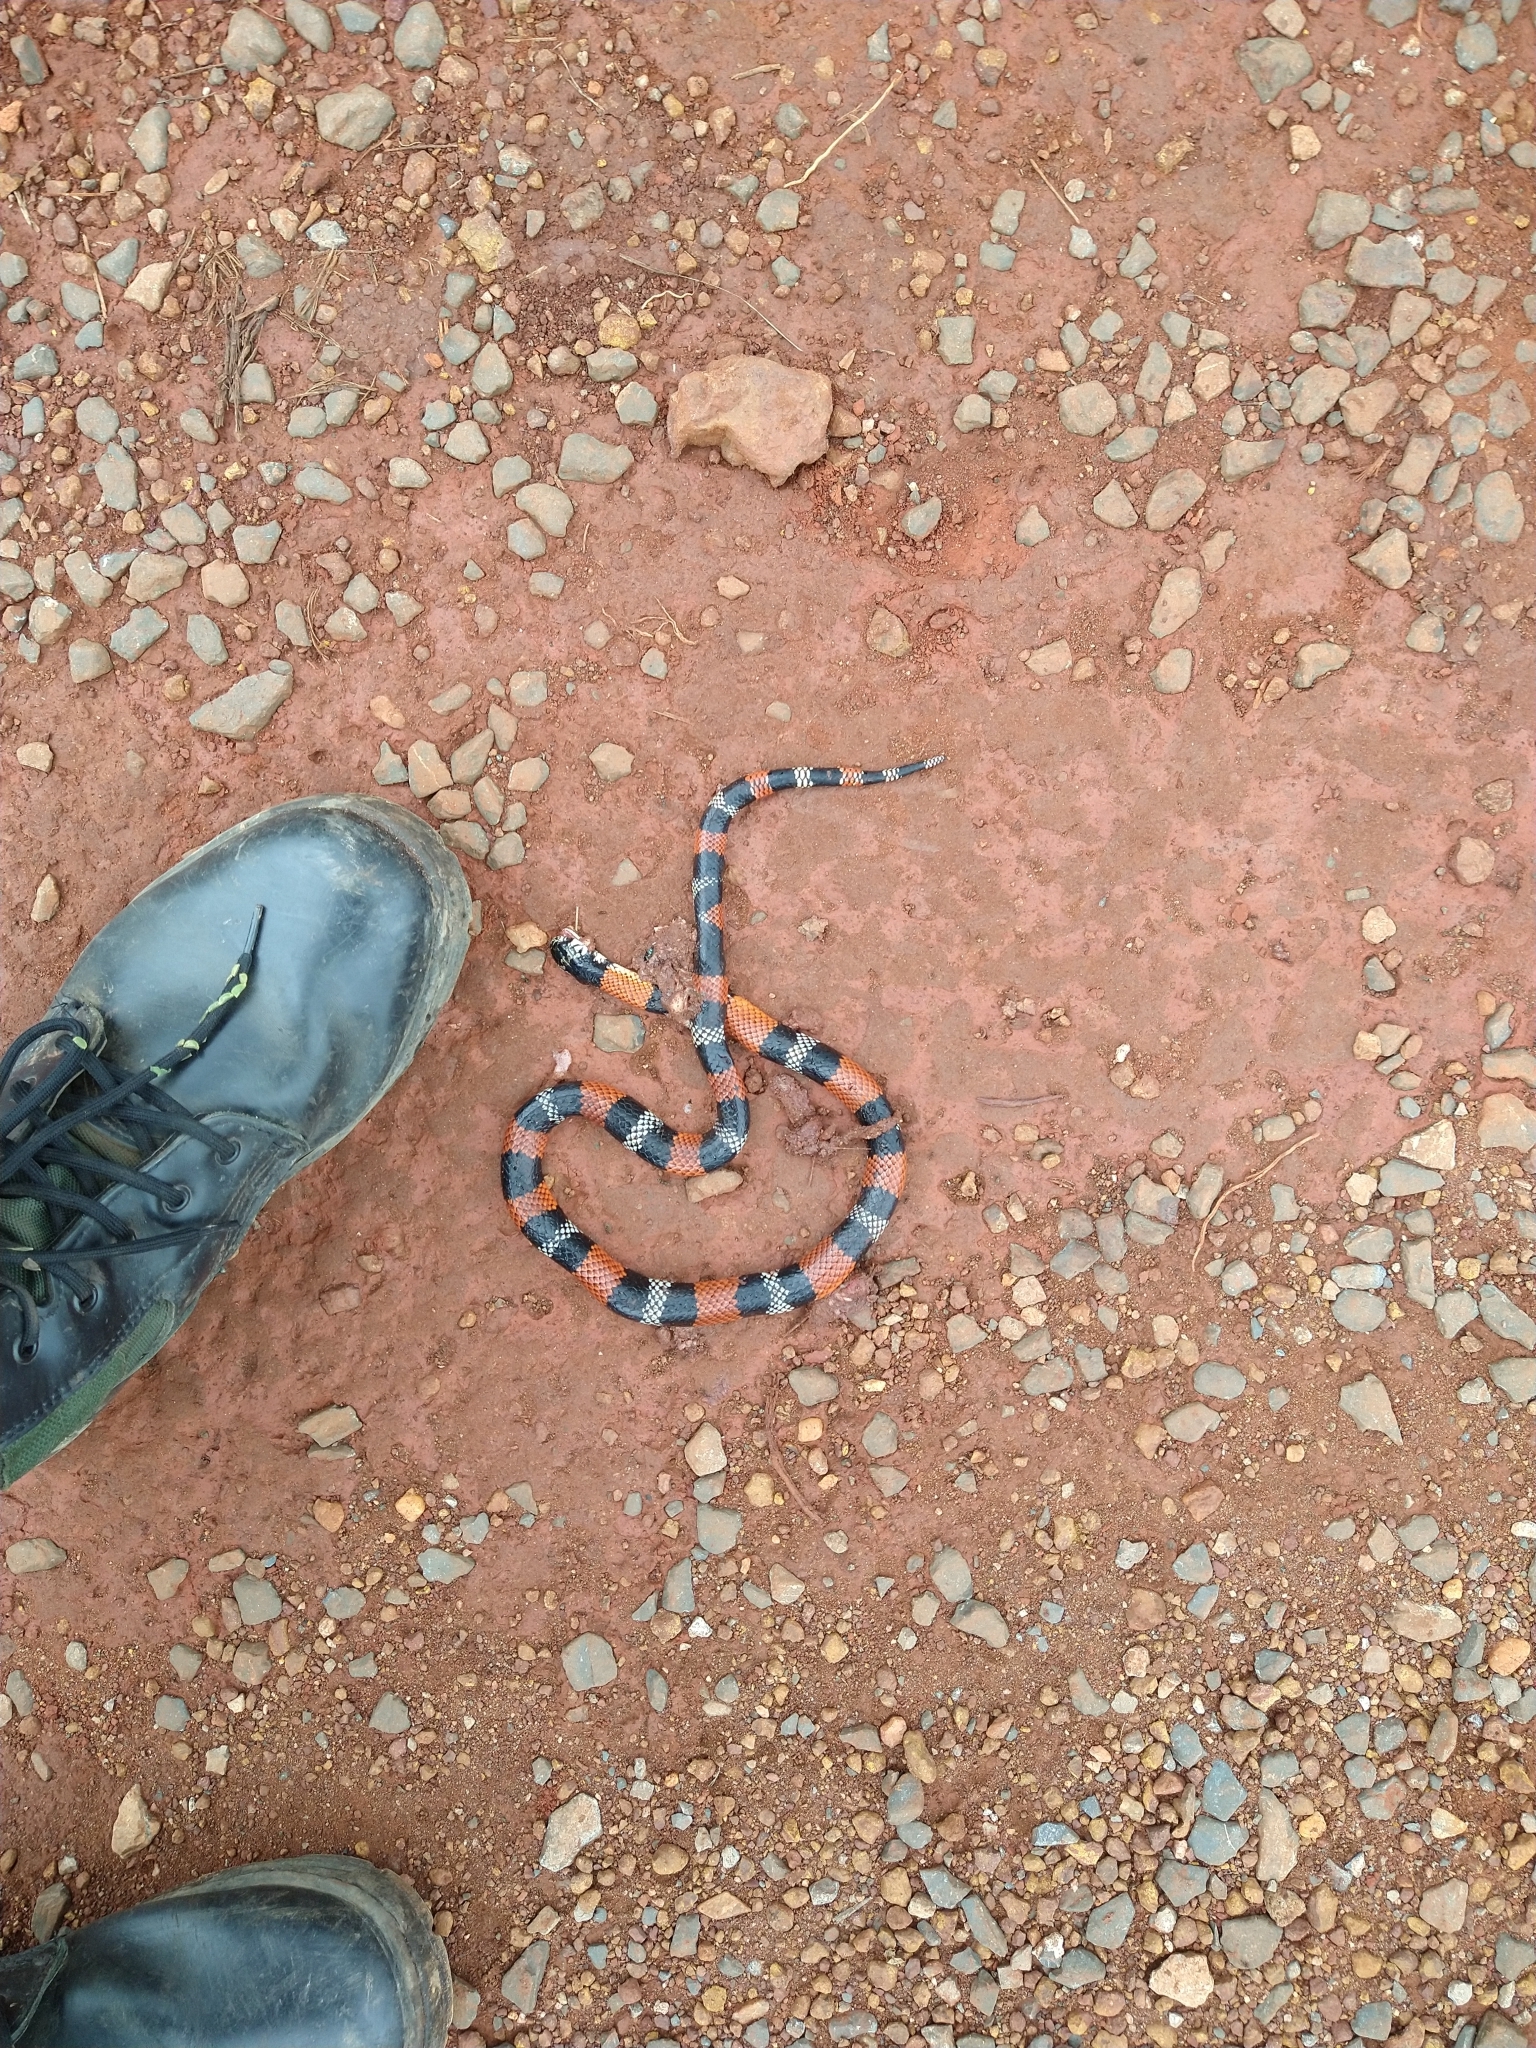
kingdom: Animalia
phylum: Chordata
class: Squamata
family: Colubridae
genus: Erythrolamprus
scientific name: Erythrolamprus aesculapii
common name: Aesculapian false coral snake
